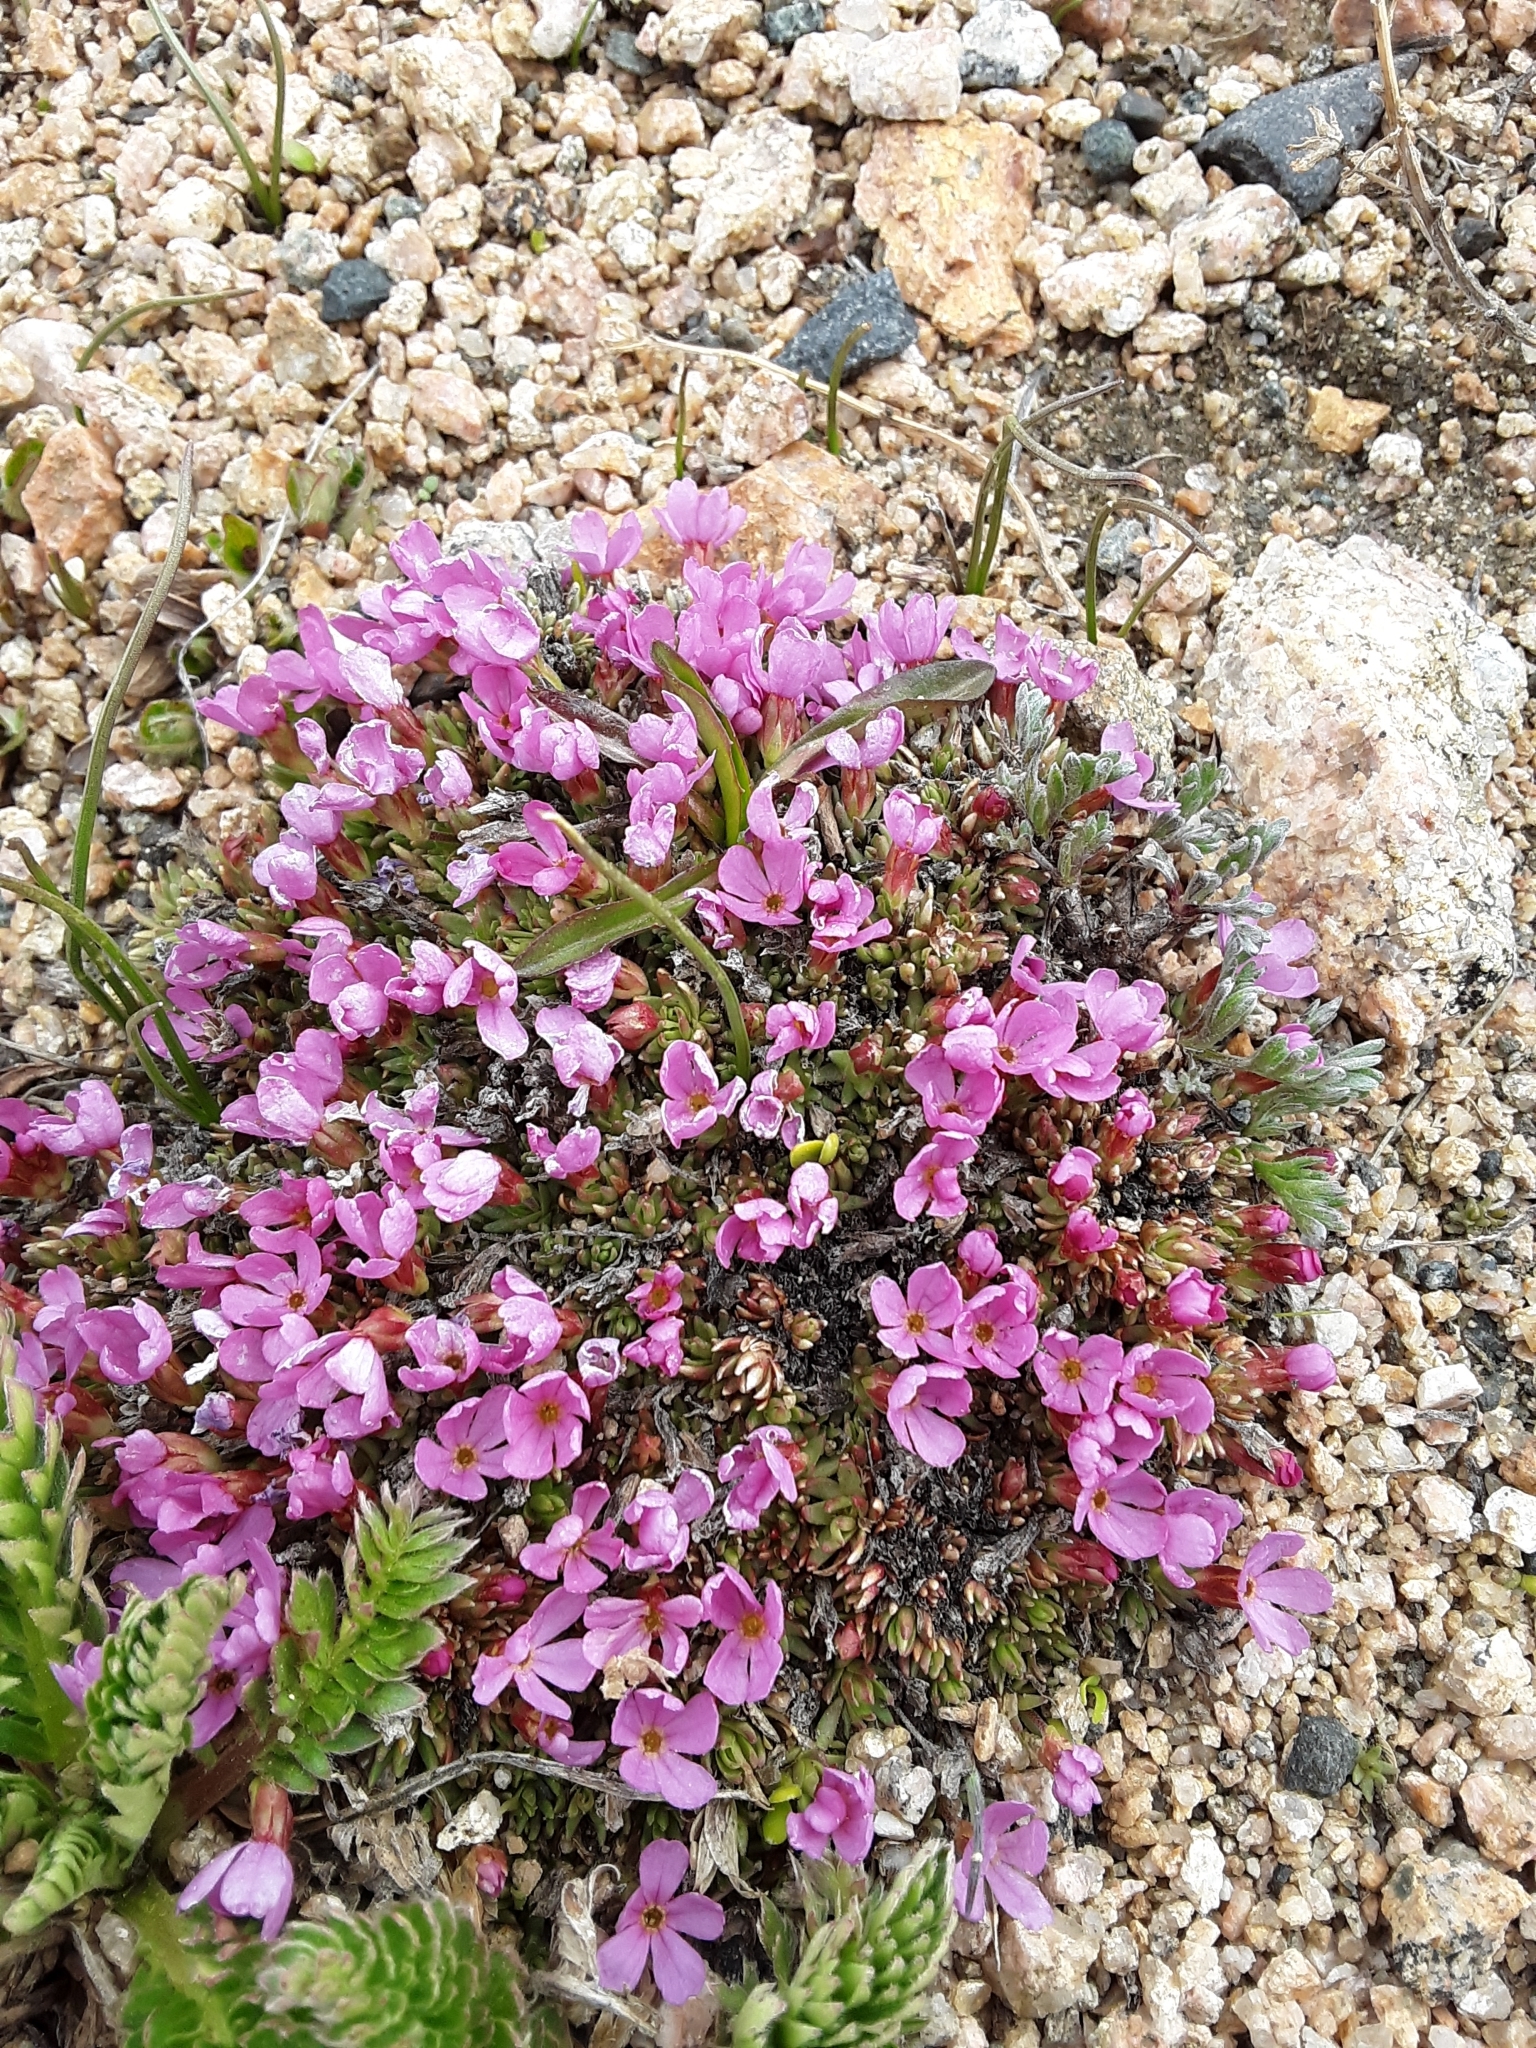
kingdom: Plantae
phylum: Tracheophyta
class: Magnoliopsida
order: Ericales
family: Primulaceae
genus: Androsace
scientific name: Androsace montana
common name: Rocky mountain dwarf-primrose
